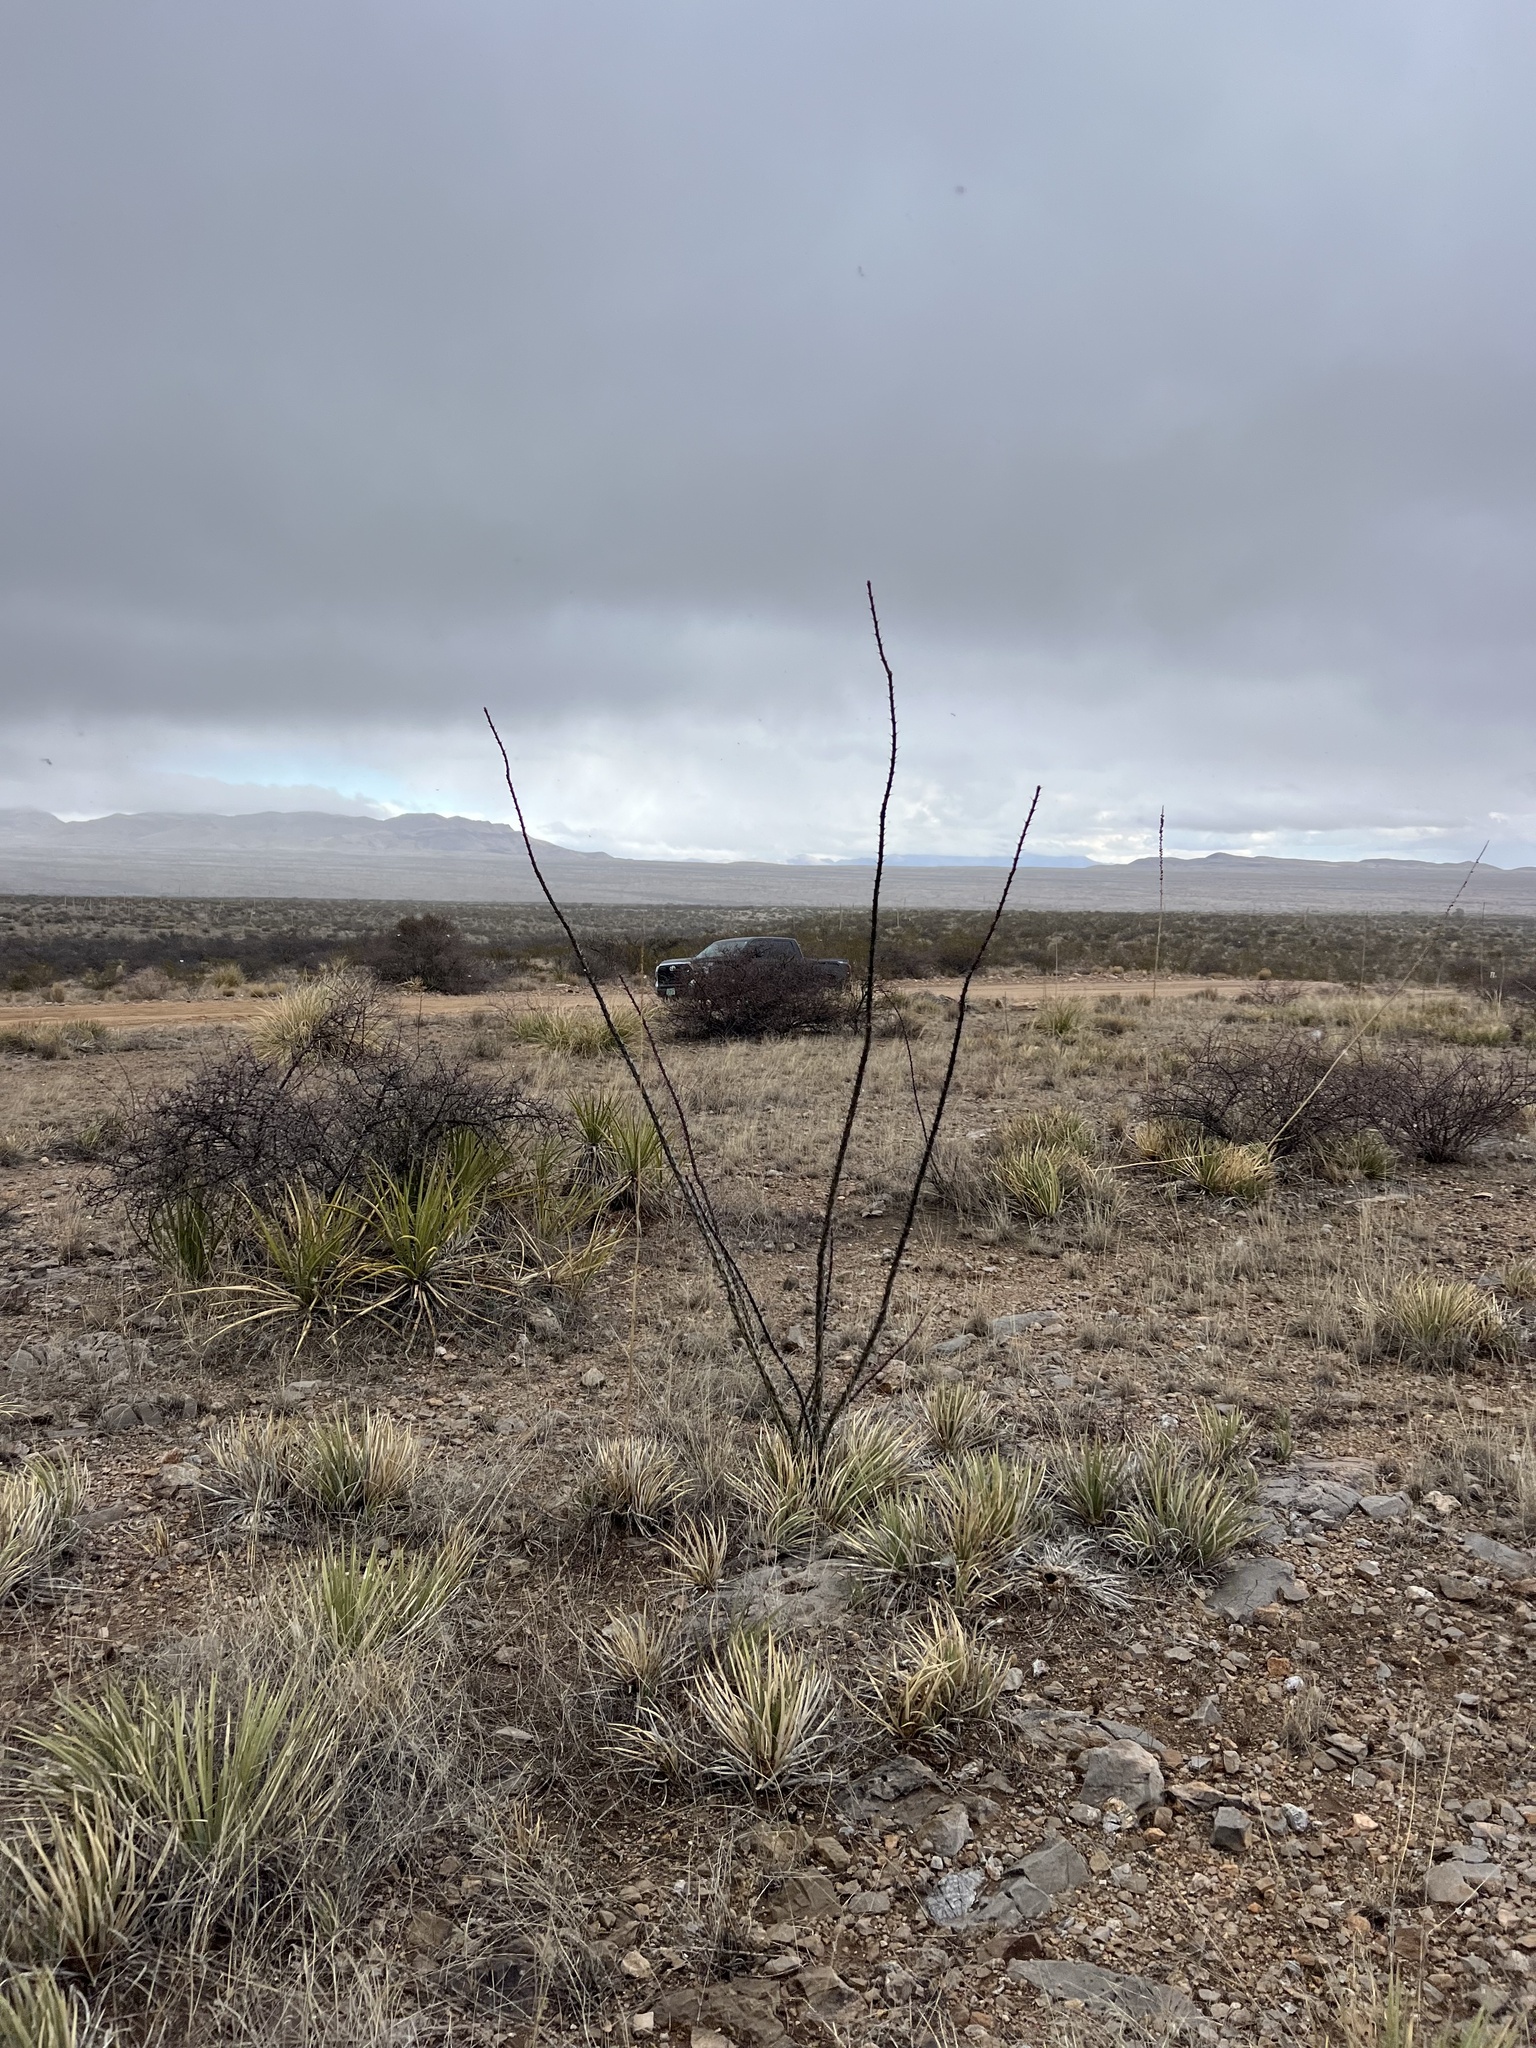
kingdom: Plantae
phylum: Tracheophyta
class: Magnoliopsida
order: Ericales
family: Fouquieriaceae
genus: Fouquieria
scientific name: Fouquieria splendens
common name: Vine-cactus
